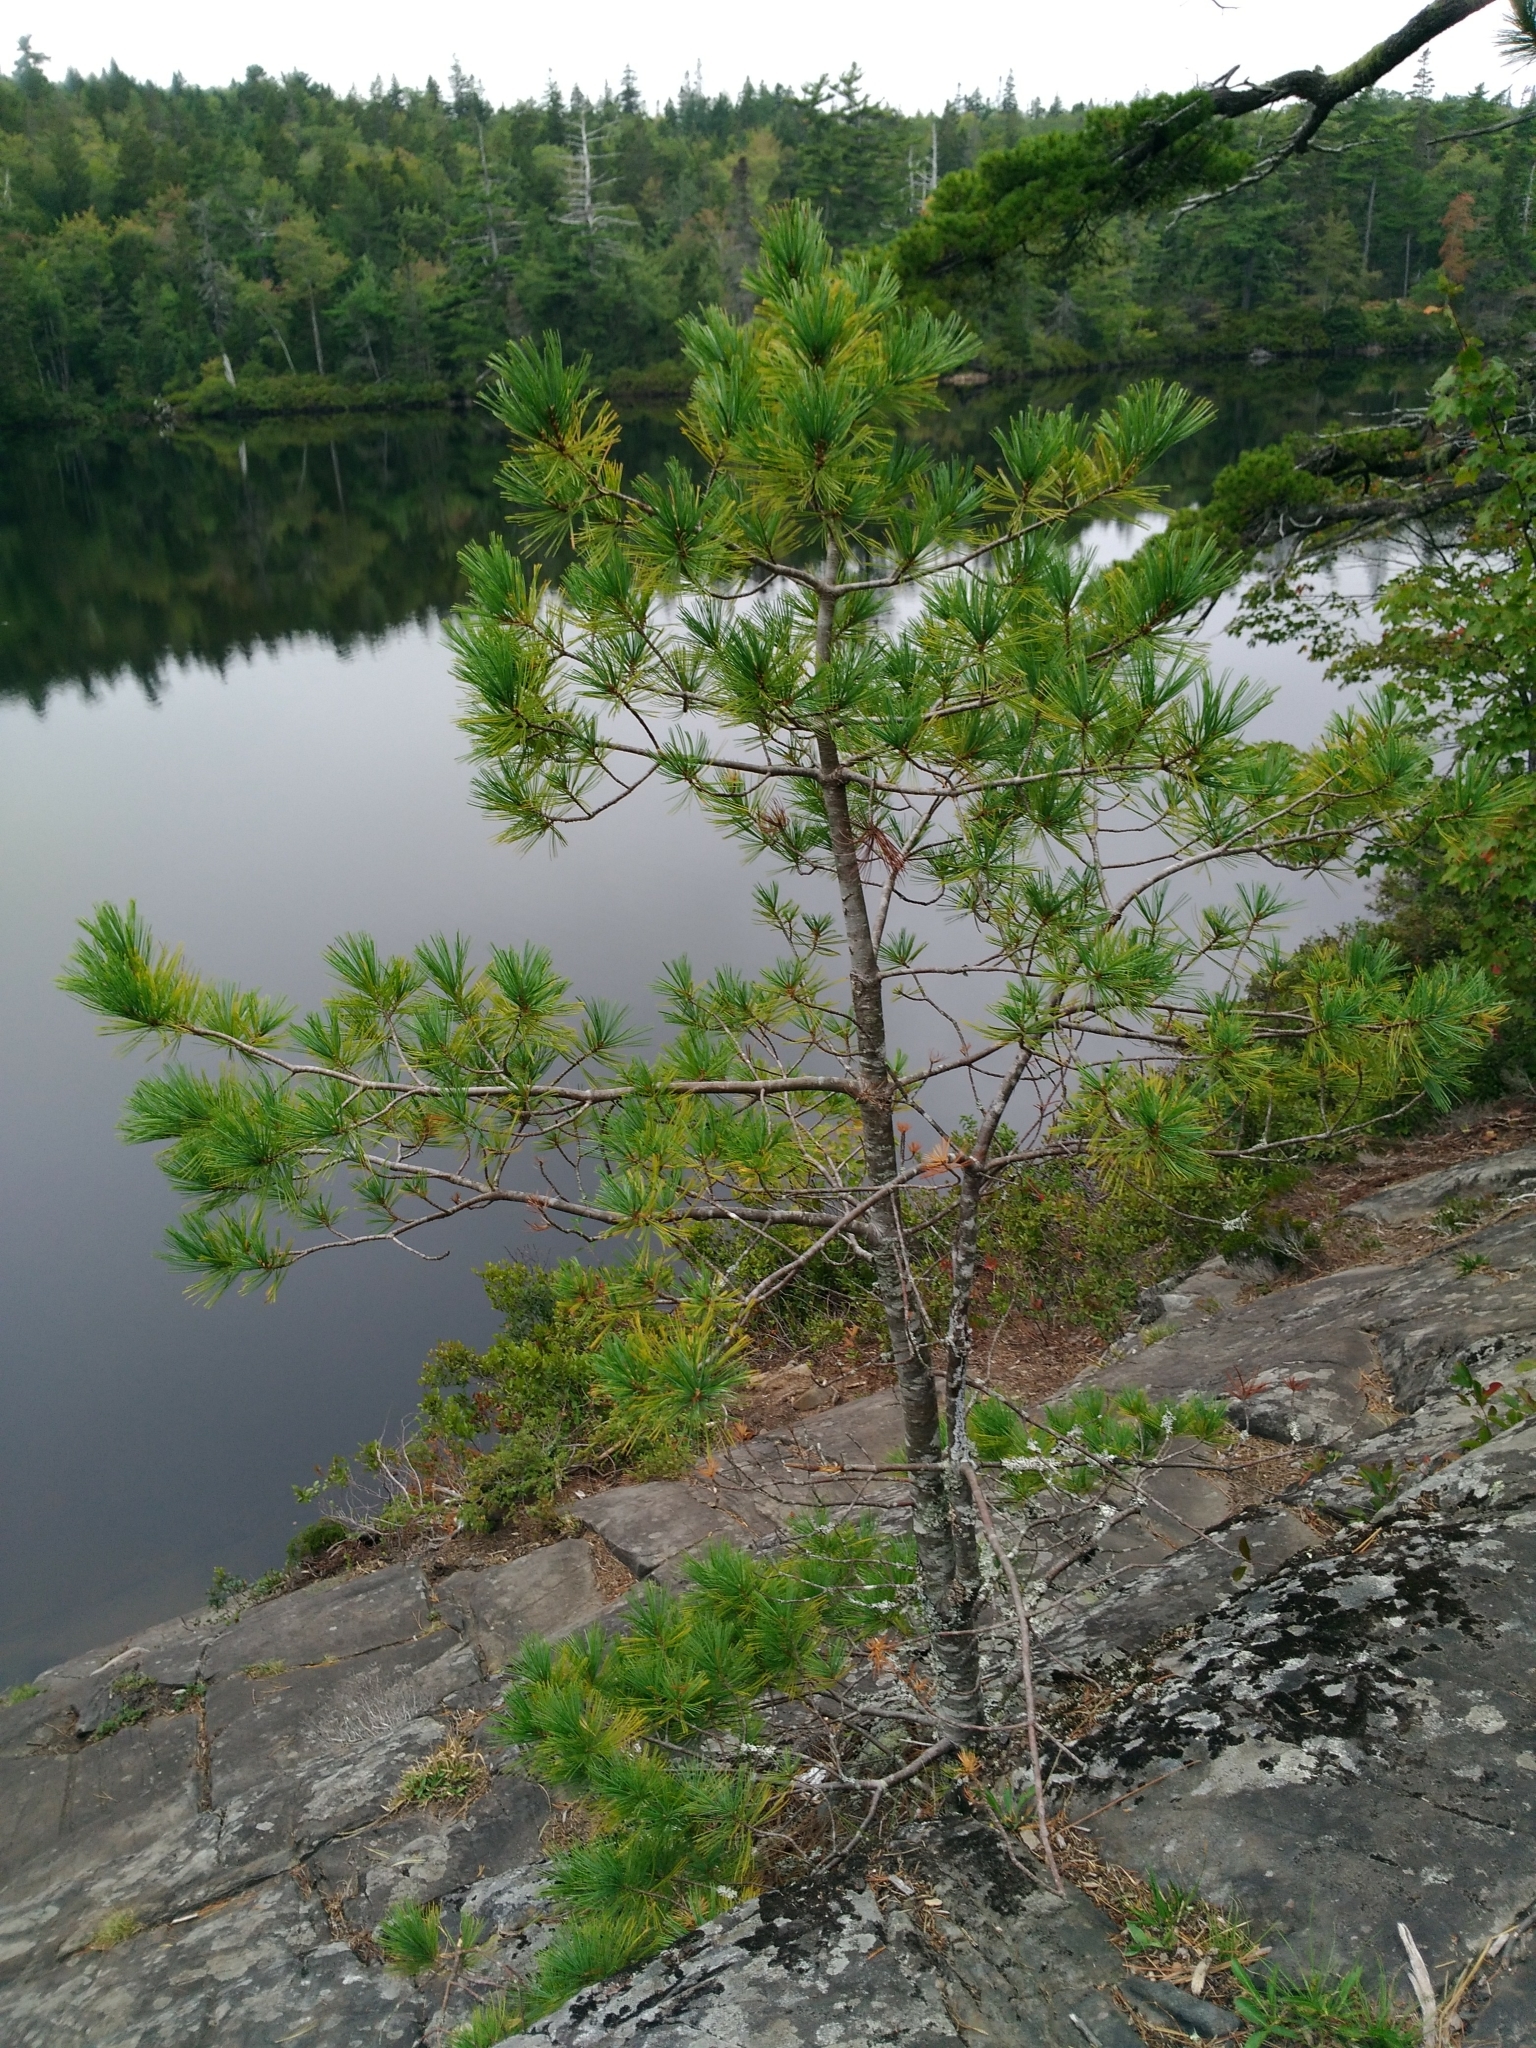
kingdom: Plantae
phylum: Tracheophyta
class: Pinopsida
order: Pinales
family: Pinaceae
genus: Pinus
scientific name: Pinus strobus
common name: Weymouth pine
